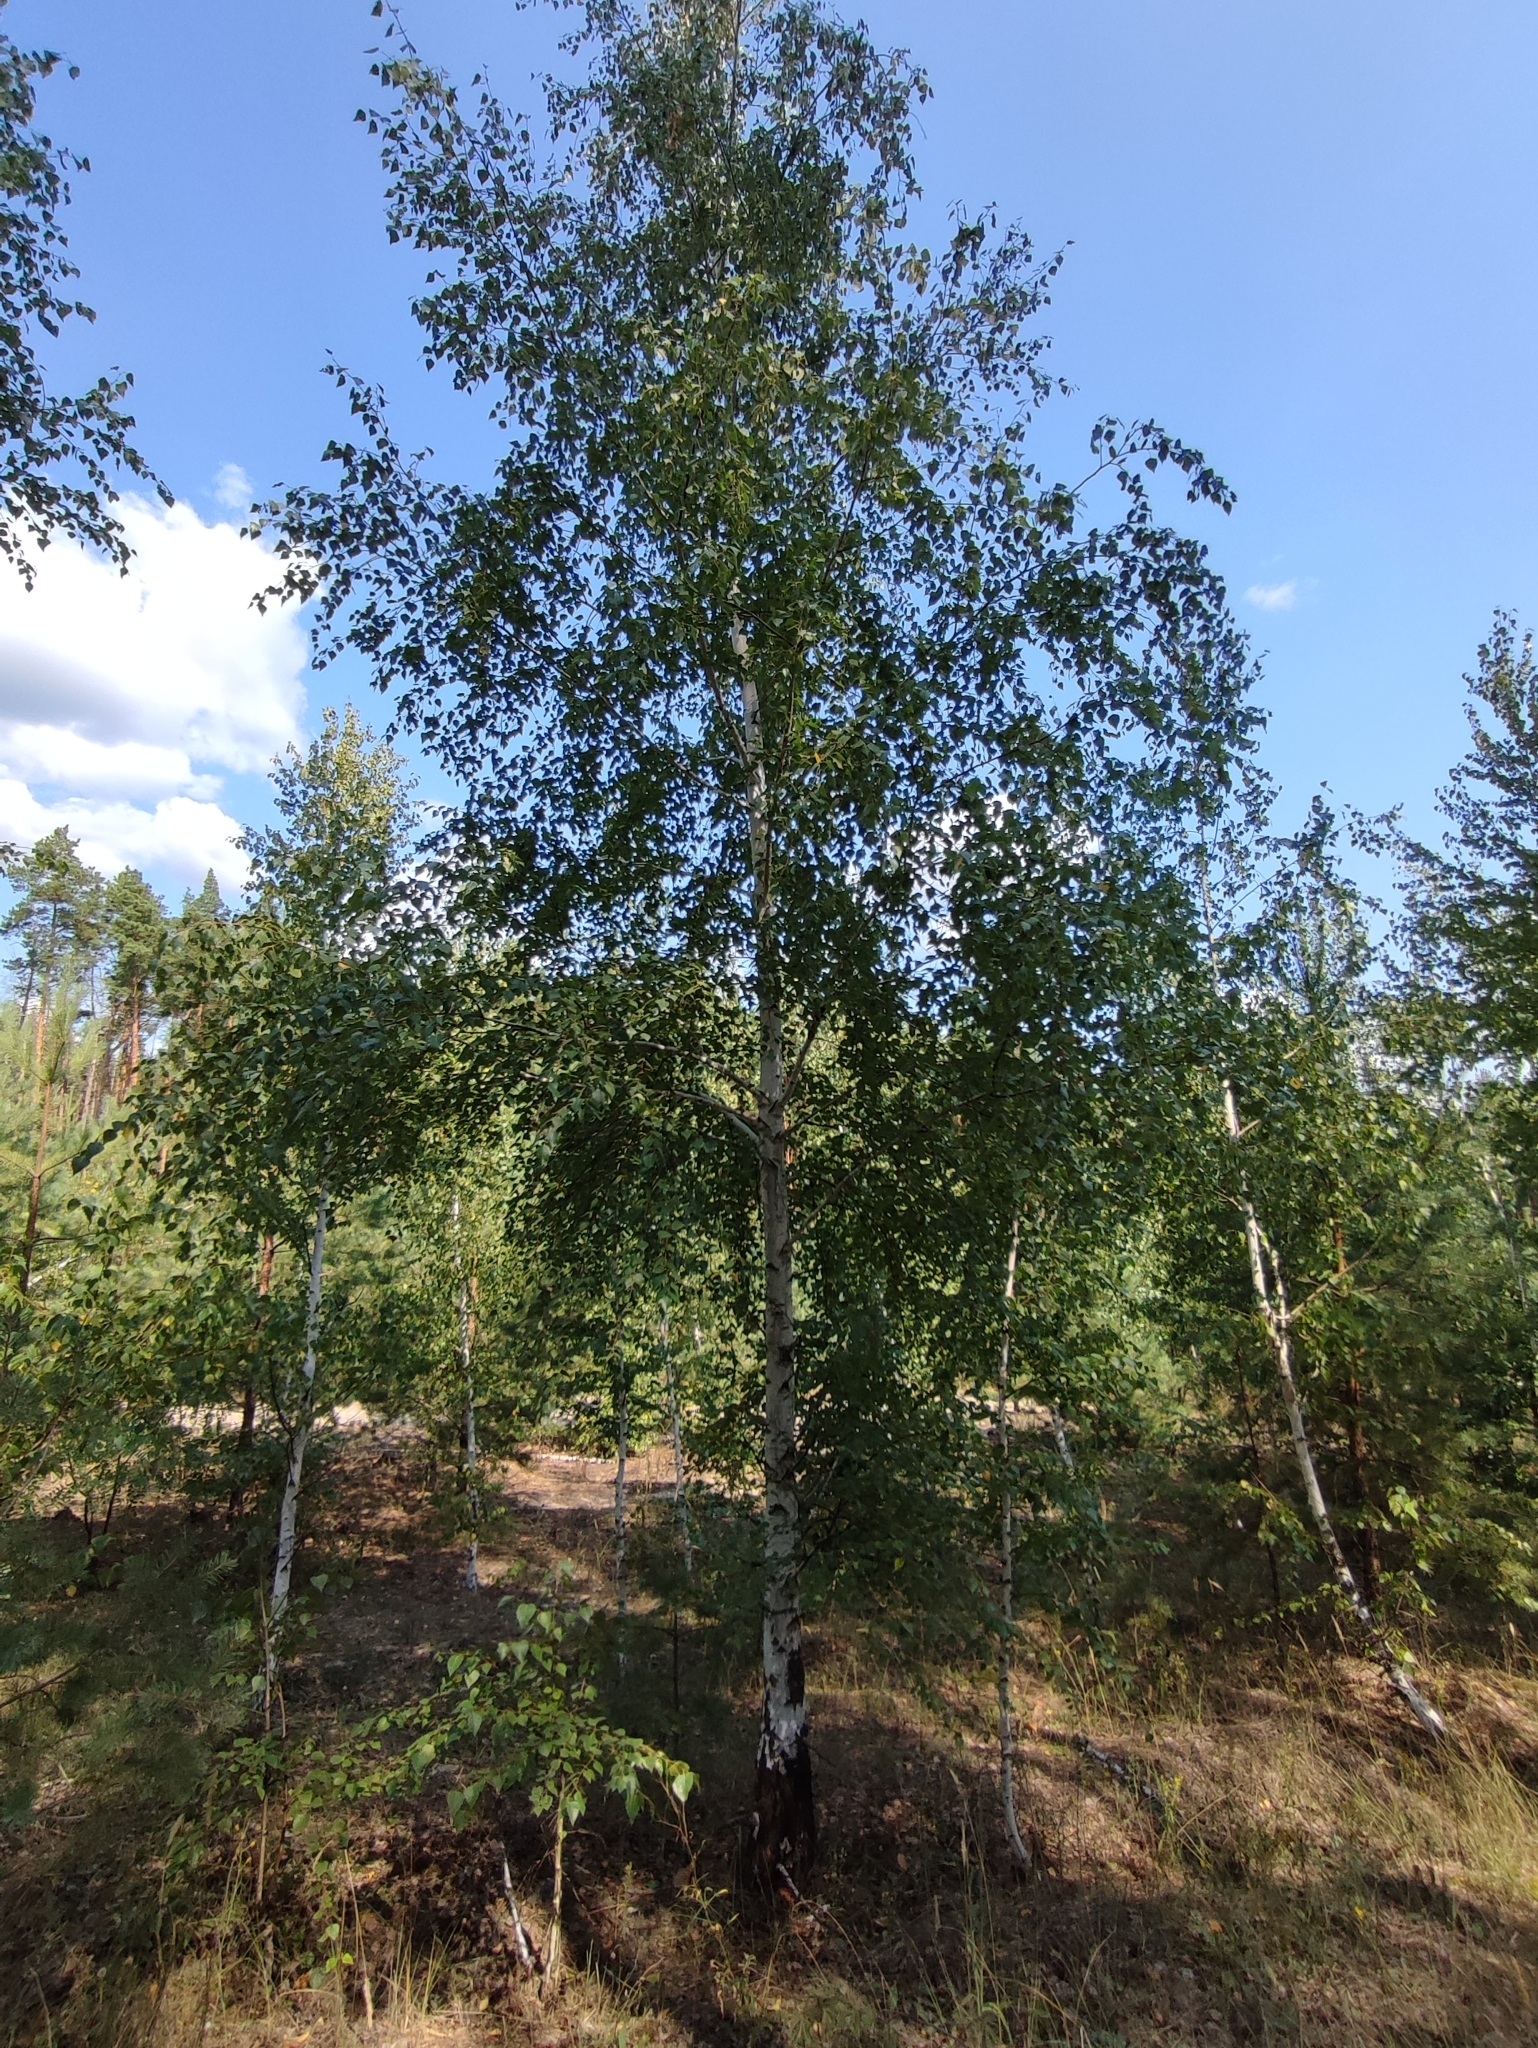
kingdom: Plantae
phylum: Tracheophyta
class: Magnoliopsida
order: Fagales
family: Betulaceae
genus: Betula
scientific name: Betula pendula
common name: Silver birch
